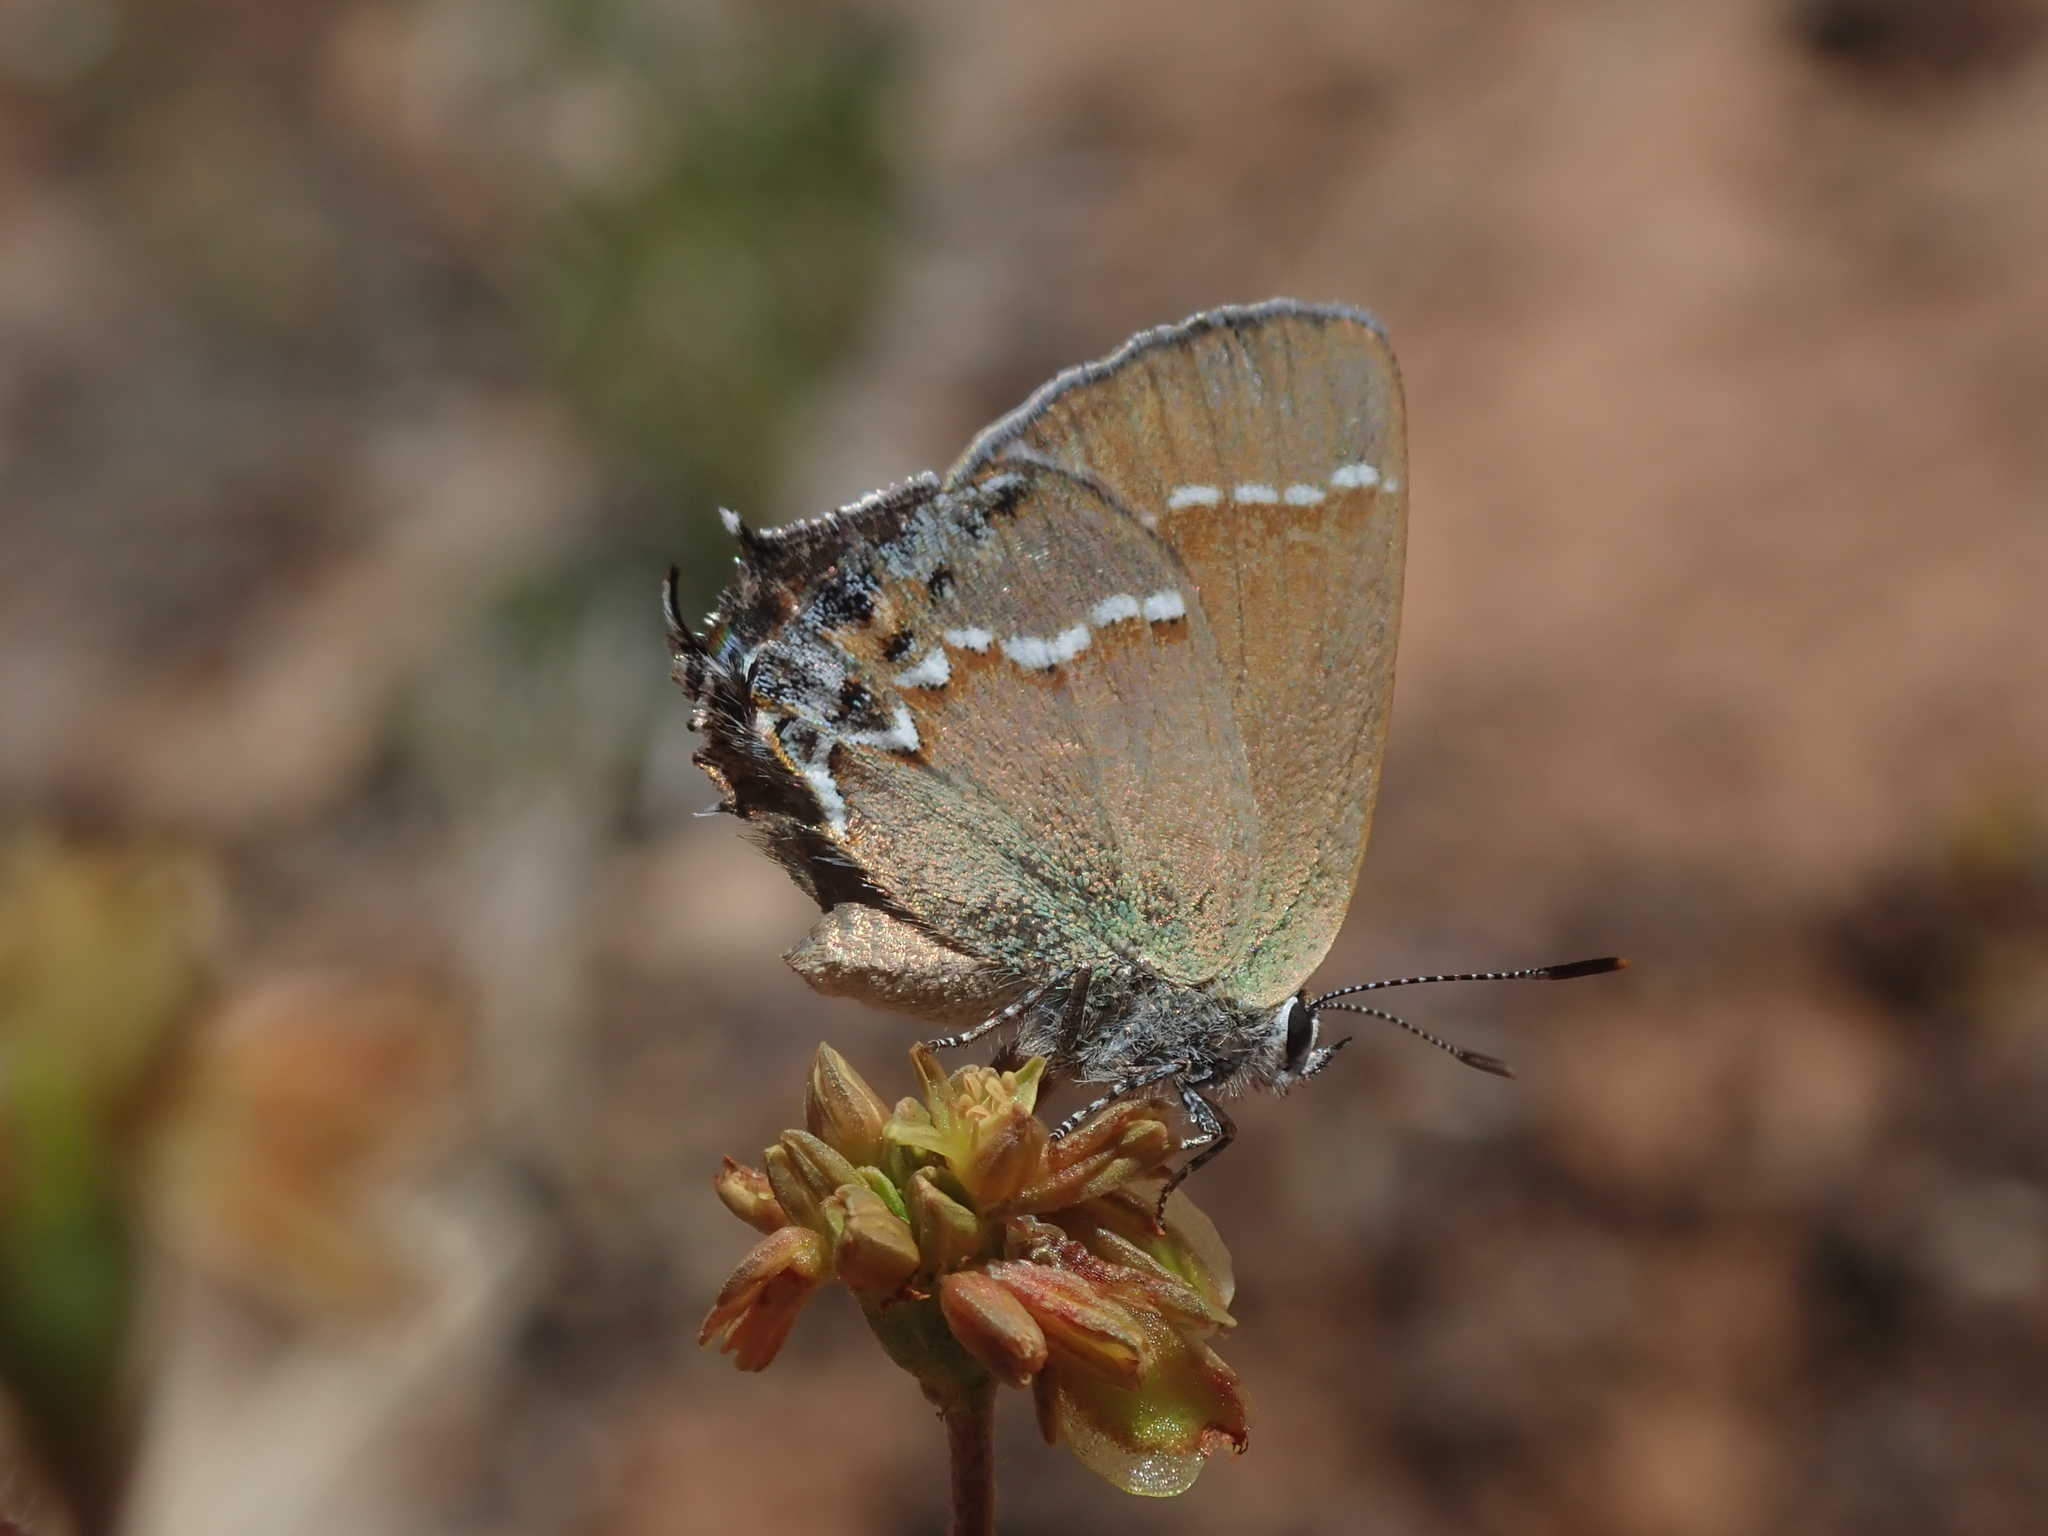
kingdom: Animalia
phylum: Arthropoda
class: Insecta
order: Lepidoptera
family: Lycaenidae
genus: Mitoura
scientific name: Mitoura siva
